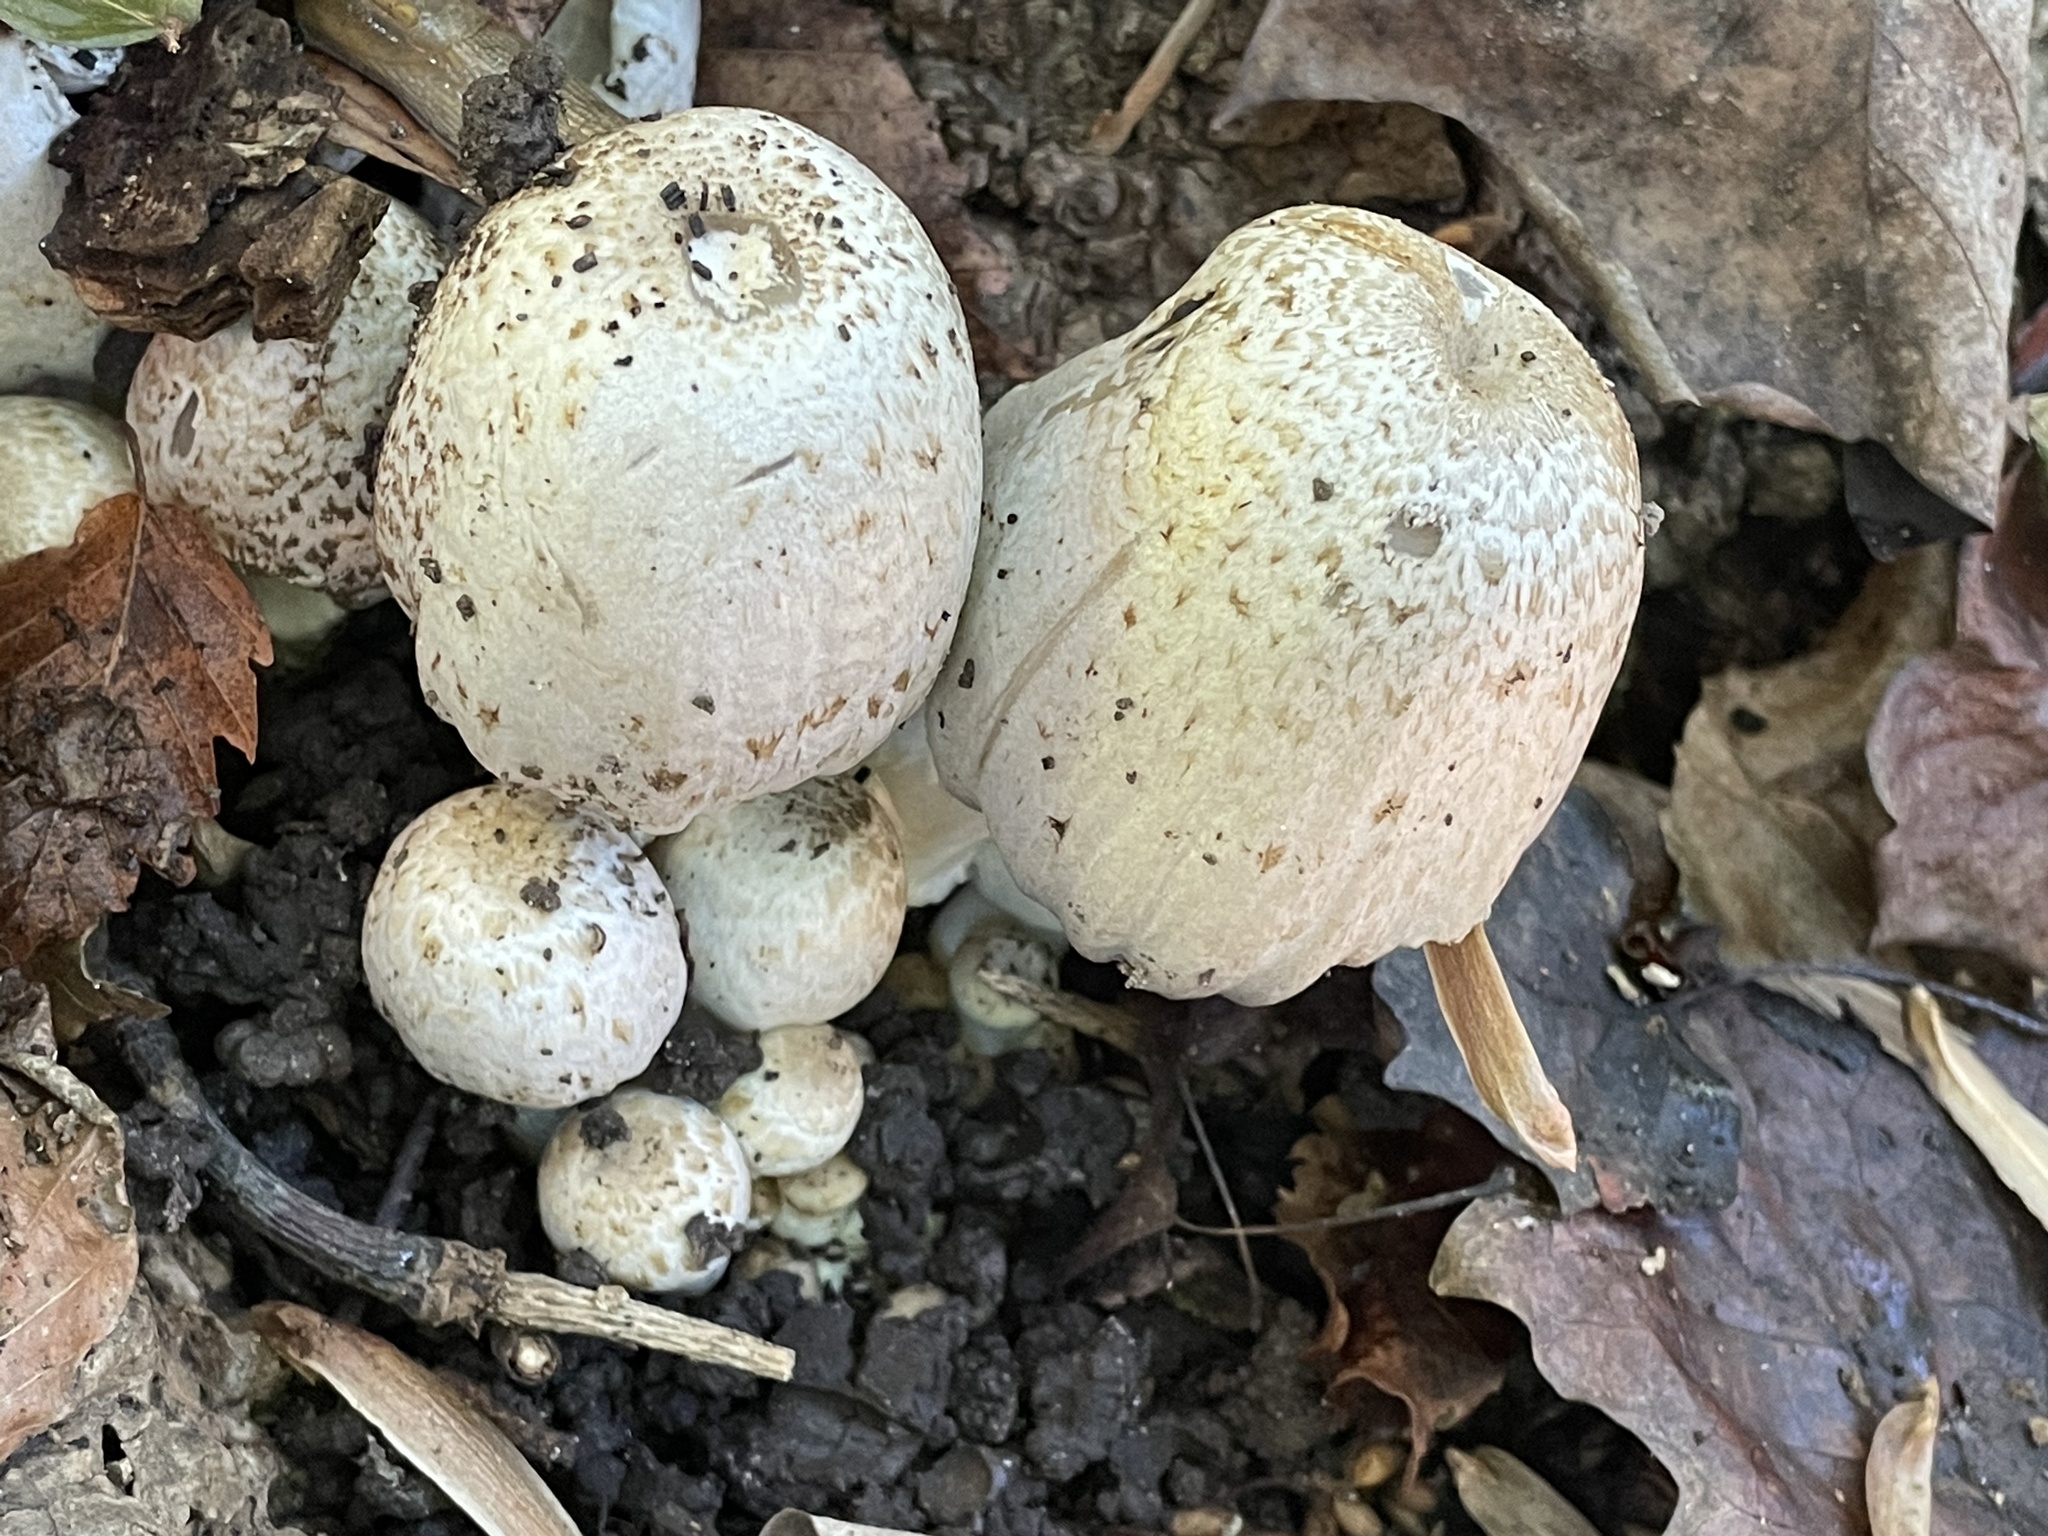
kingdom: Fungi
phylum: Basidiomycota
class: Agaricomycetes
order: Agaricales
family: Psathyrellaceae
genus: Coprinopsis
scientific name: Coprinopsis atramentaria
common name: Common ink-cap
